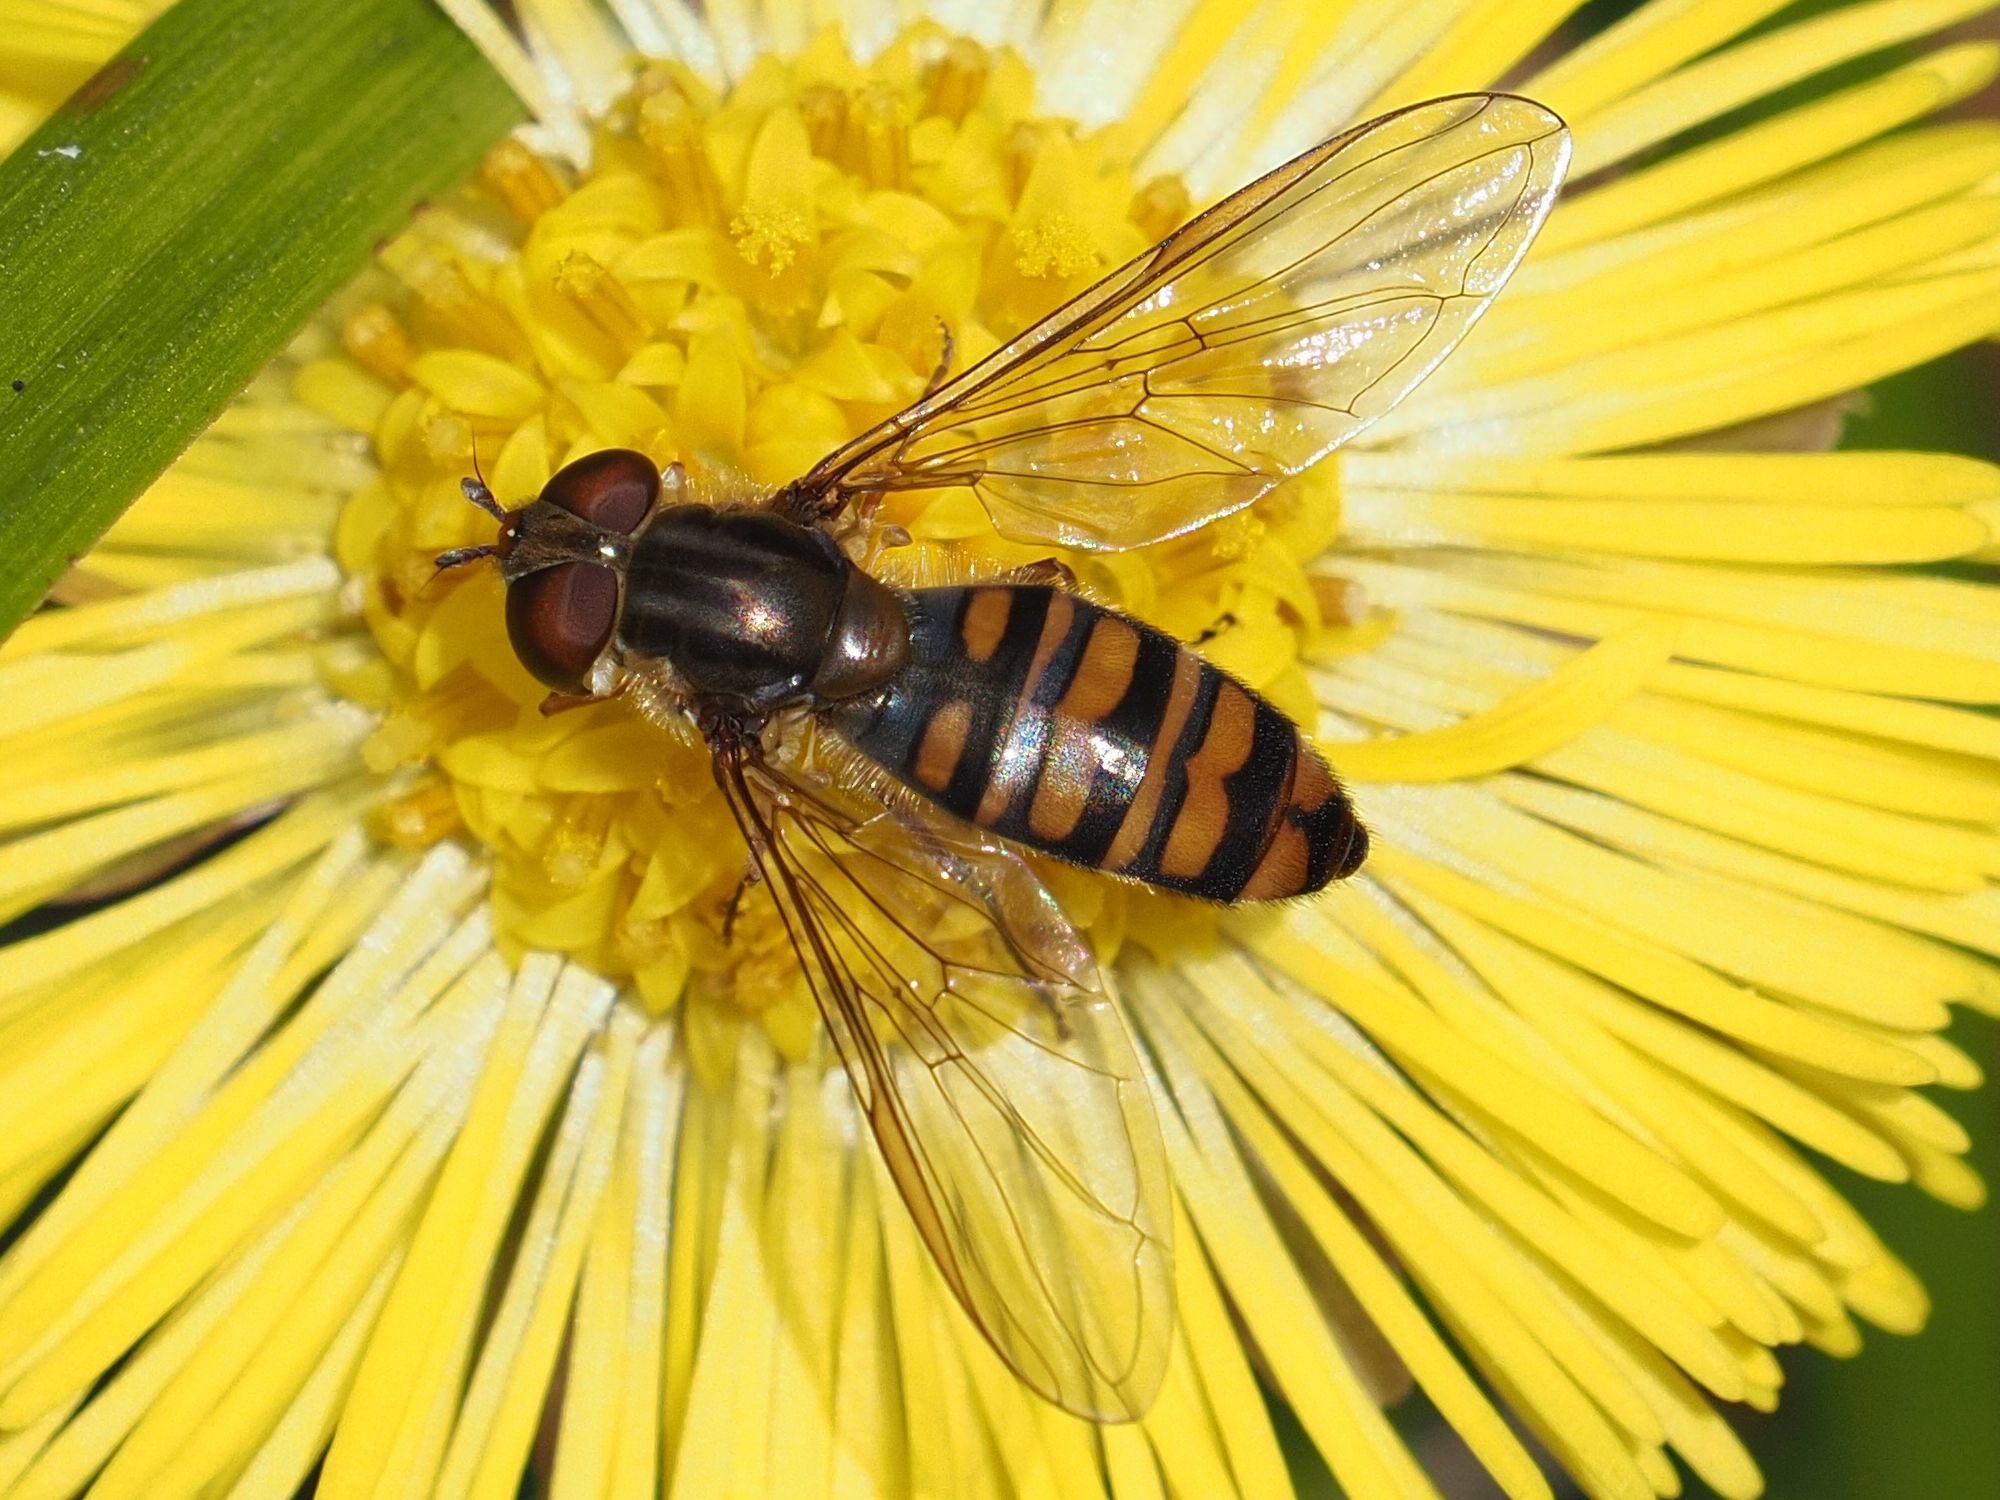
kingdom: Animalia
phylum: Arthropoda
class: Insecta
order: Diptera
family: Syrphidae
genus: Episyrphus
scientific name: Episyrphus balteatus
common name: Marmalade hoverfly
